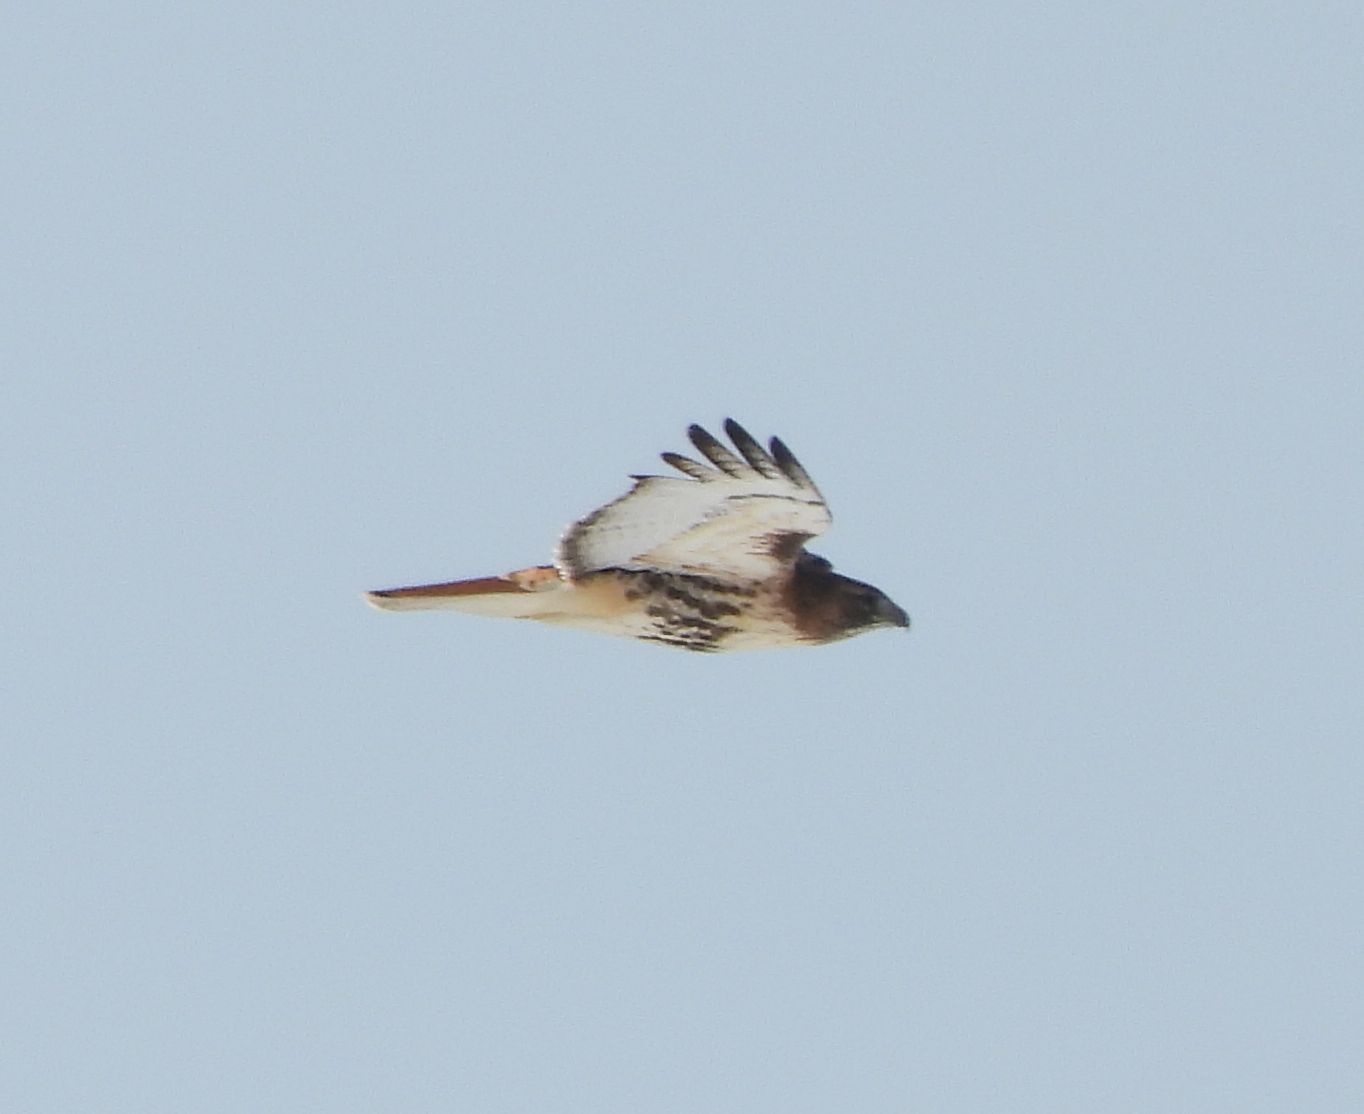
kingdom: Animalia
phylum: Chordata
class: Aves
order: Accipitriformes
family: Accipitridae
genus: Buteo
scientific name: Buteo jamaicensis
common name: Red-tailed hawk
